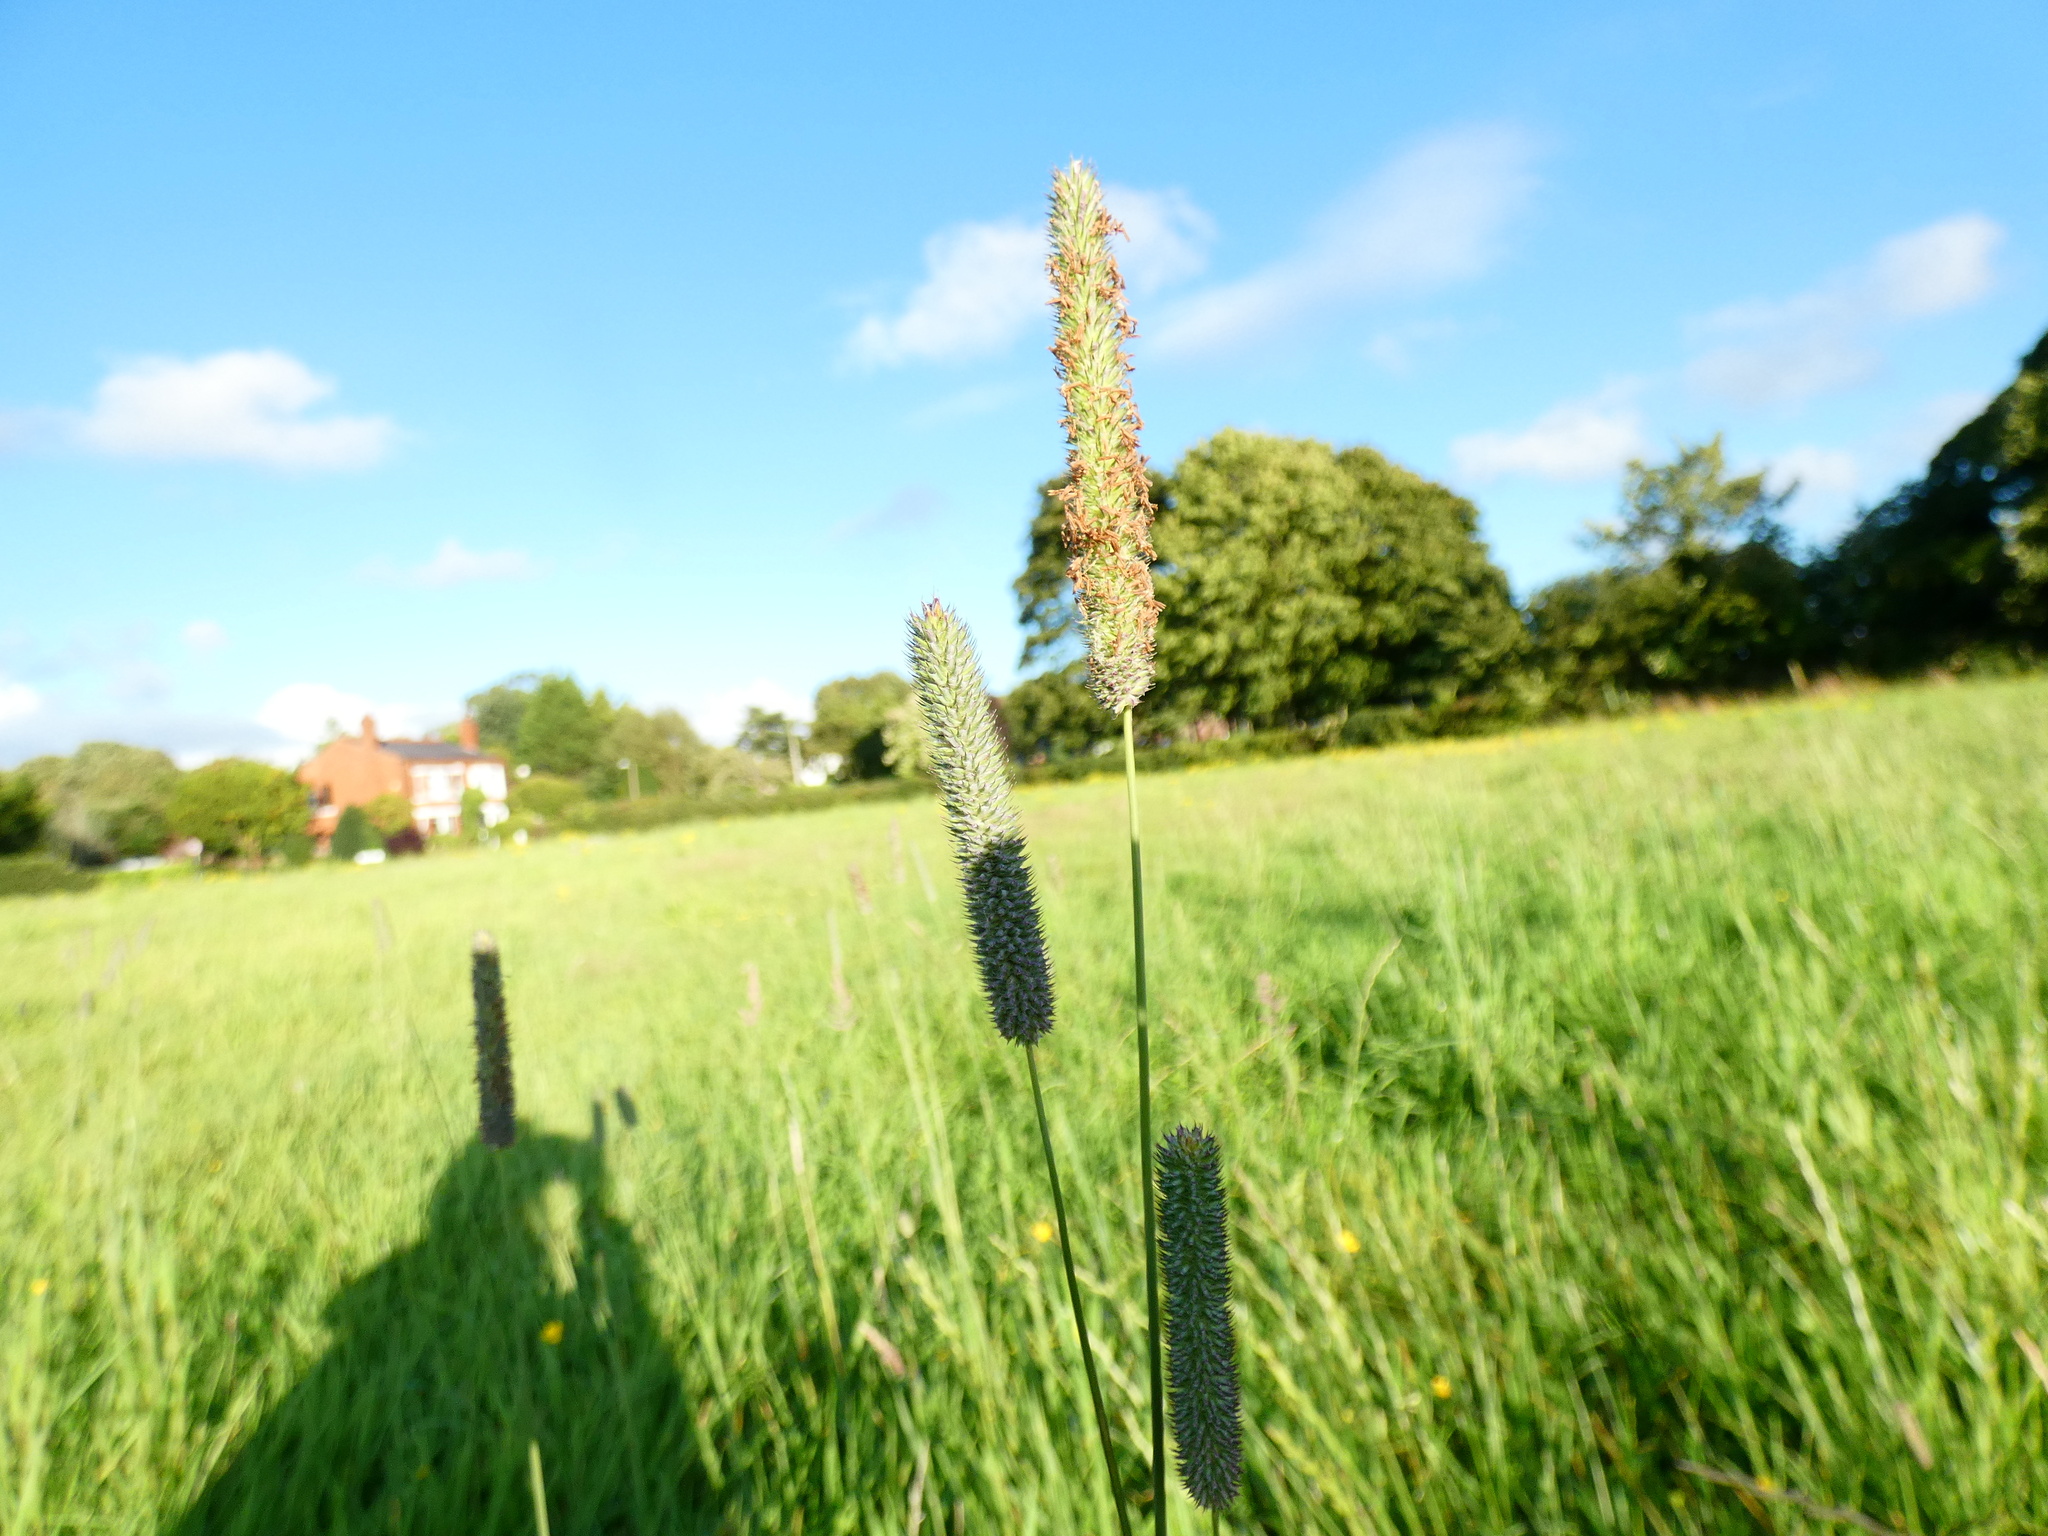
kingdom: Plantae
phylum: Tracheophyta
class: Liliopsida
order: Poales
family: Poaceae
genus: Phleum
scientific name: Phleum pratense
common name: Timothy grass
